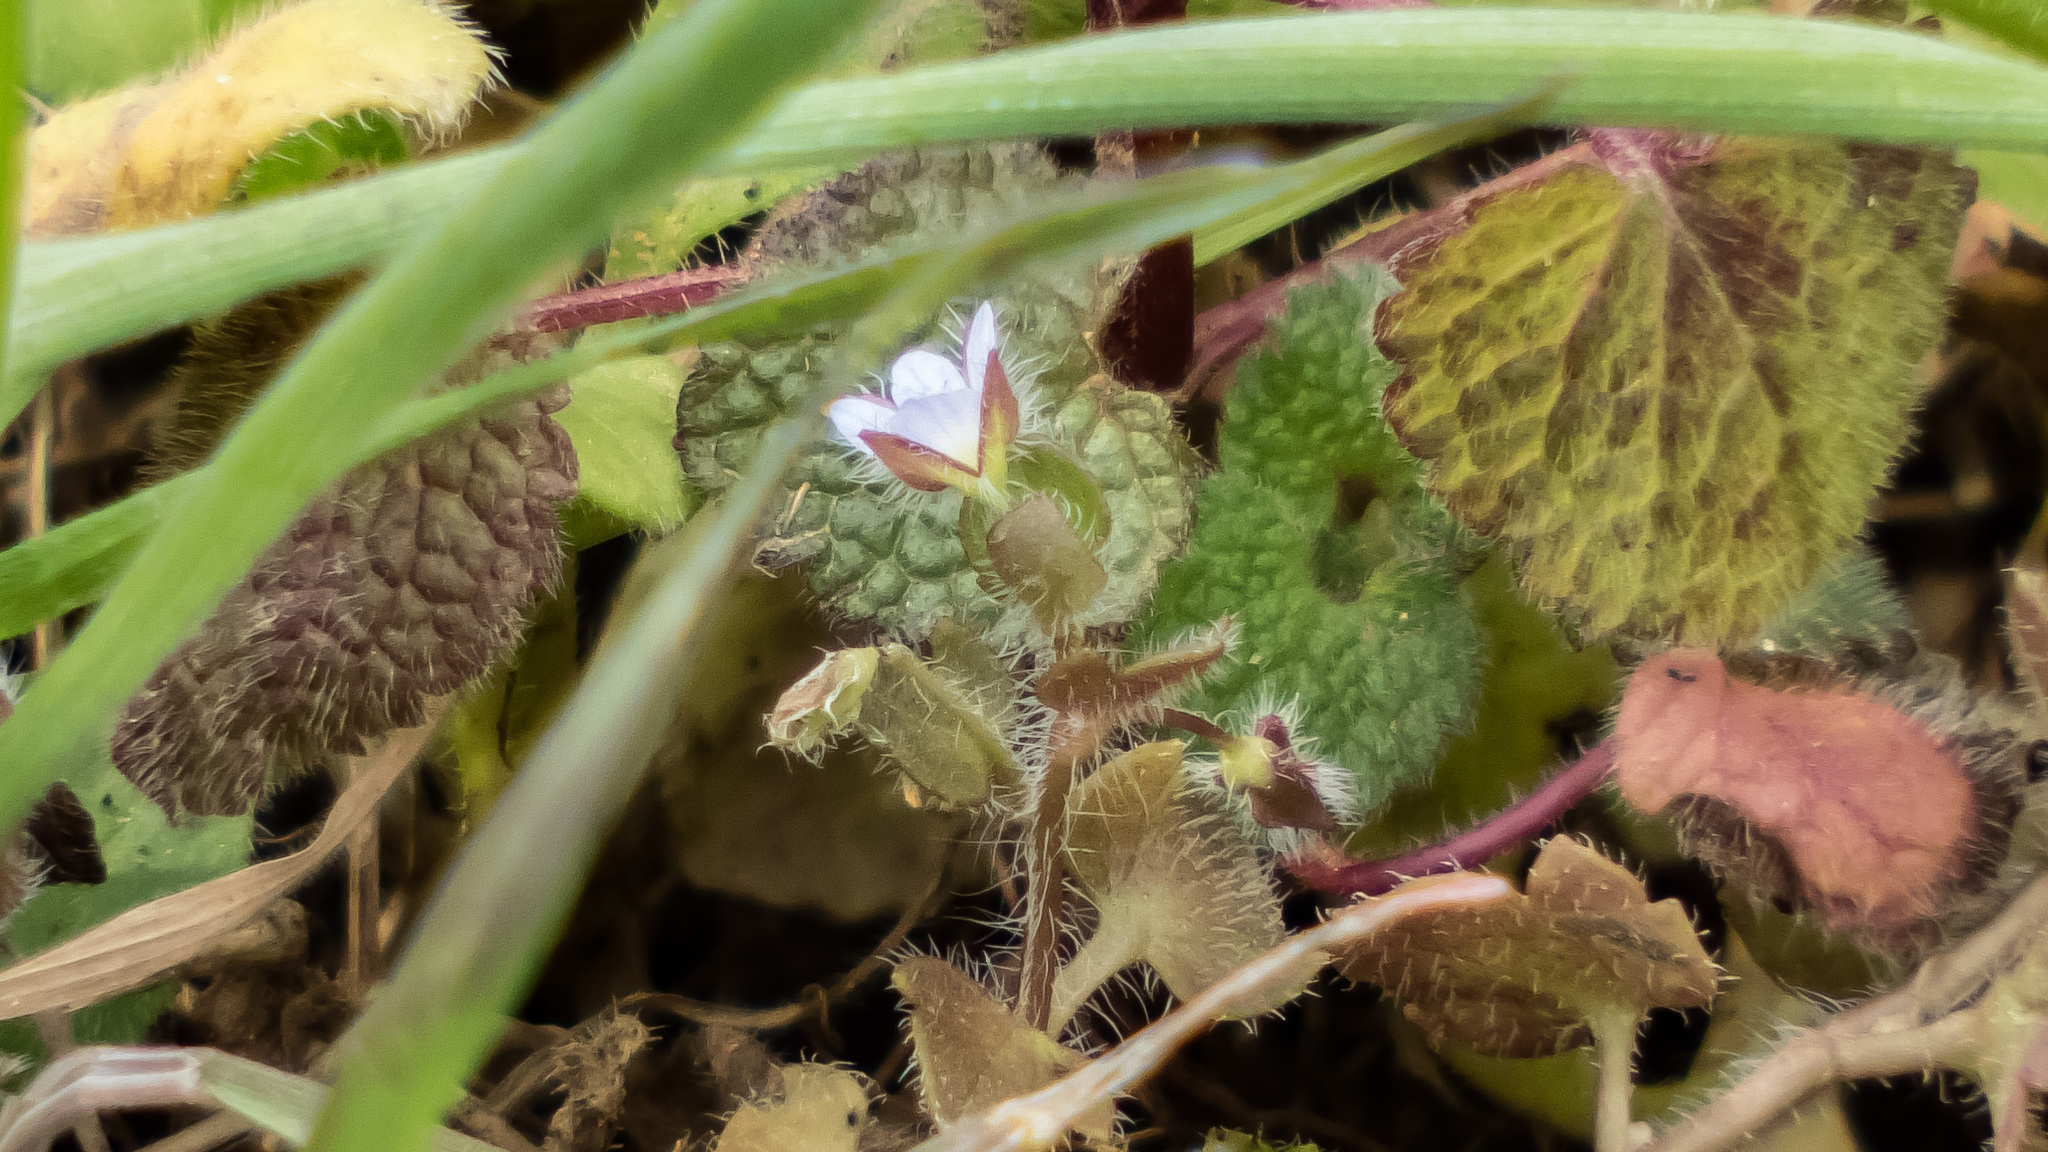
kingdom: Plantae
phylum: Tracheophyta
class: Magnoliopsida
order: Lamiales
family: Plantaginaceae
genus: Veronica
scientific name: Veronica hederifolia
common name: Ivy-leaved speedwell
